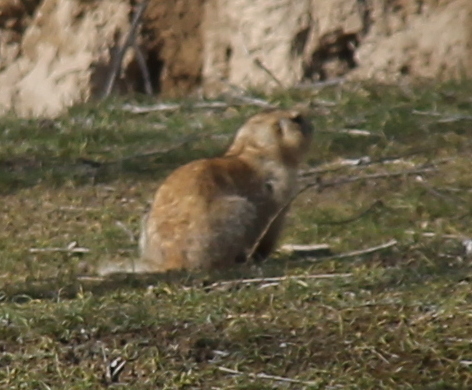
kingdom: Animalia
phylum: Chordata
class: Mammalia
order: Rodentia
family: Sciuridae
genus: Spermophilus
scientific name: Spermophilus fulvus
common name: Yellow ground squirrel
